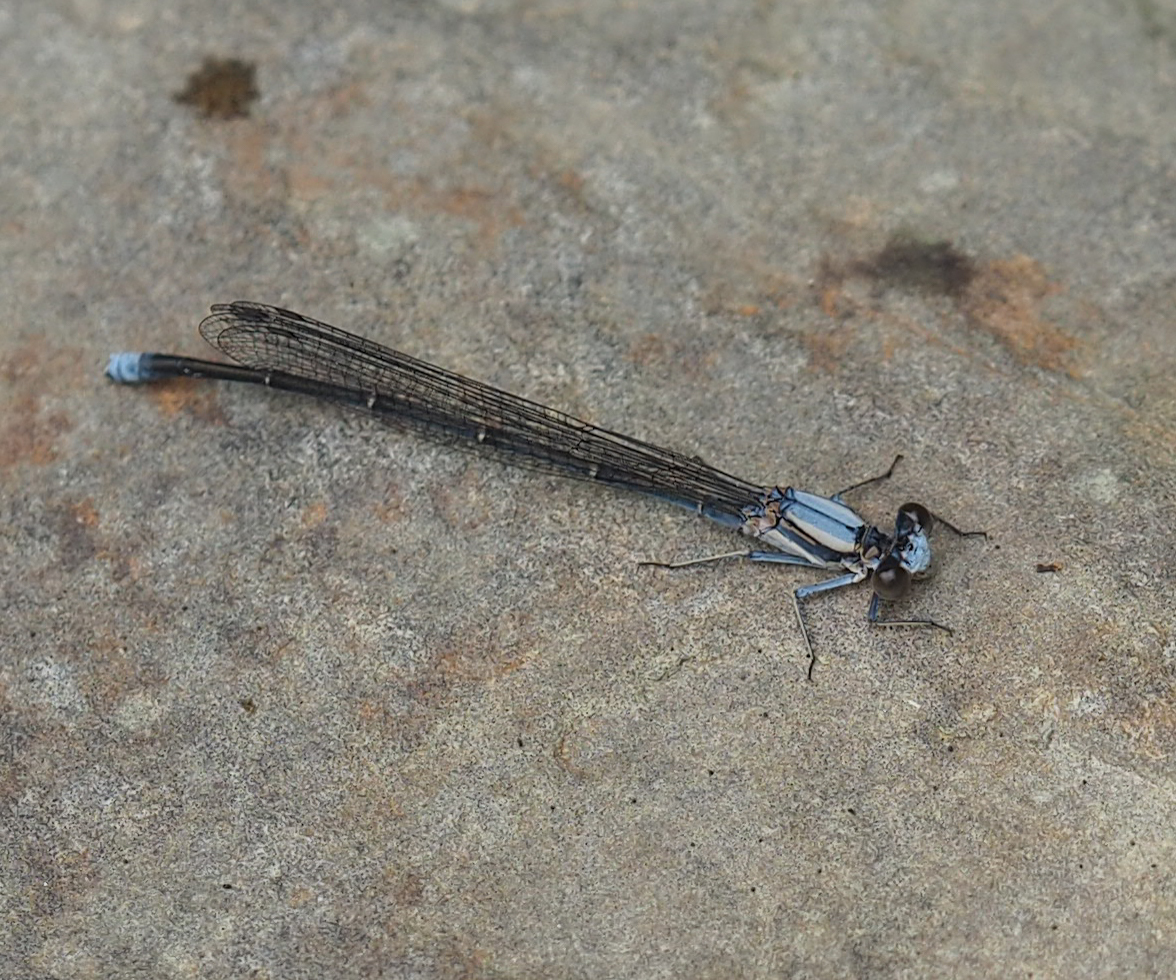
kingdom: Animalia
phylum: Arthropoda
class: Insecta
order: Odonata
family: Coenagrionidae
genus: Argia
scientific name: Argia moesta
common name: Powdered dancer
